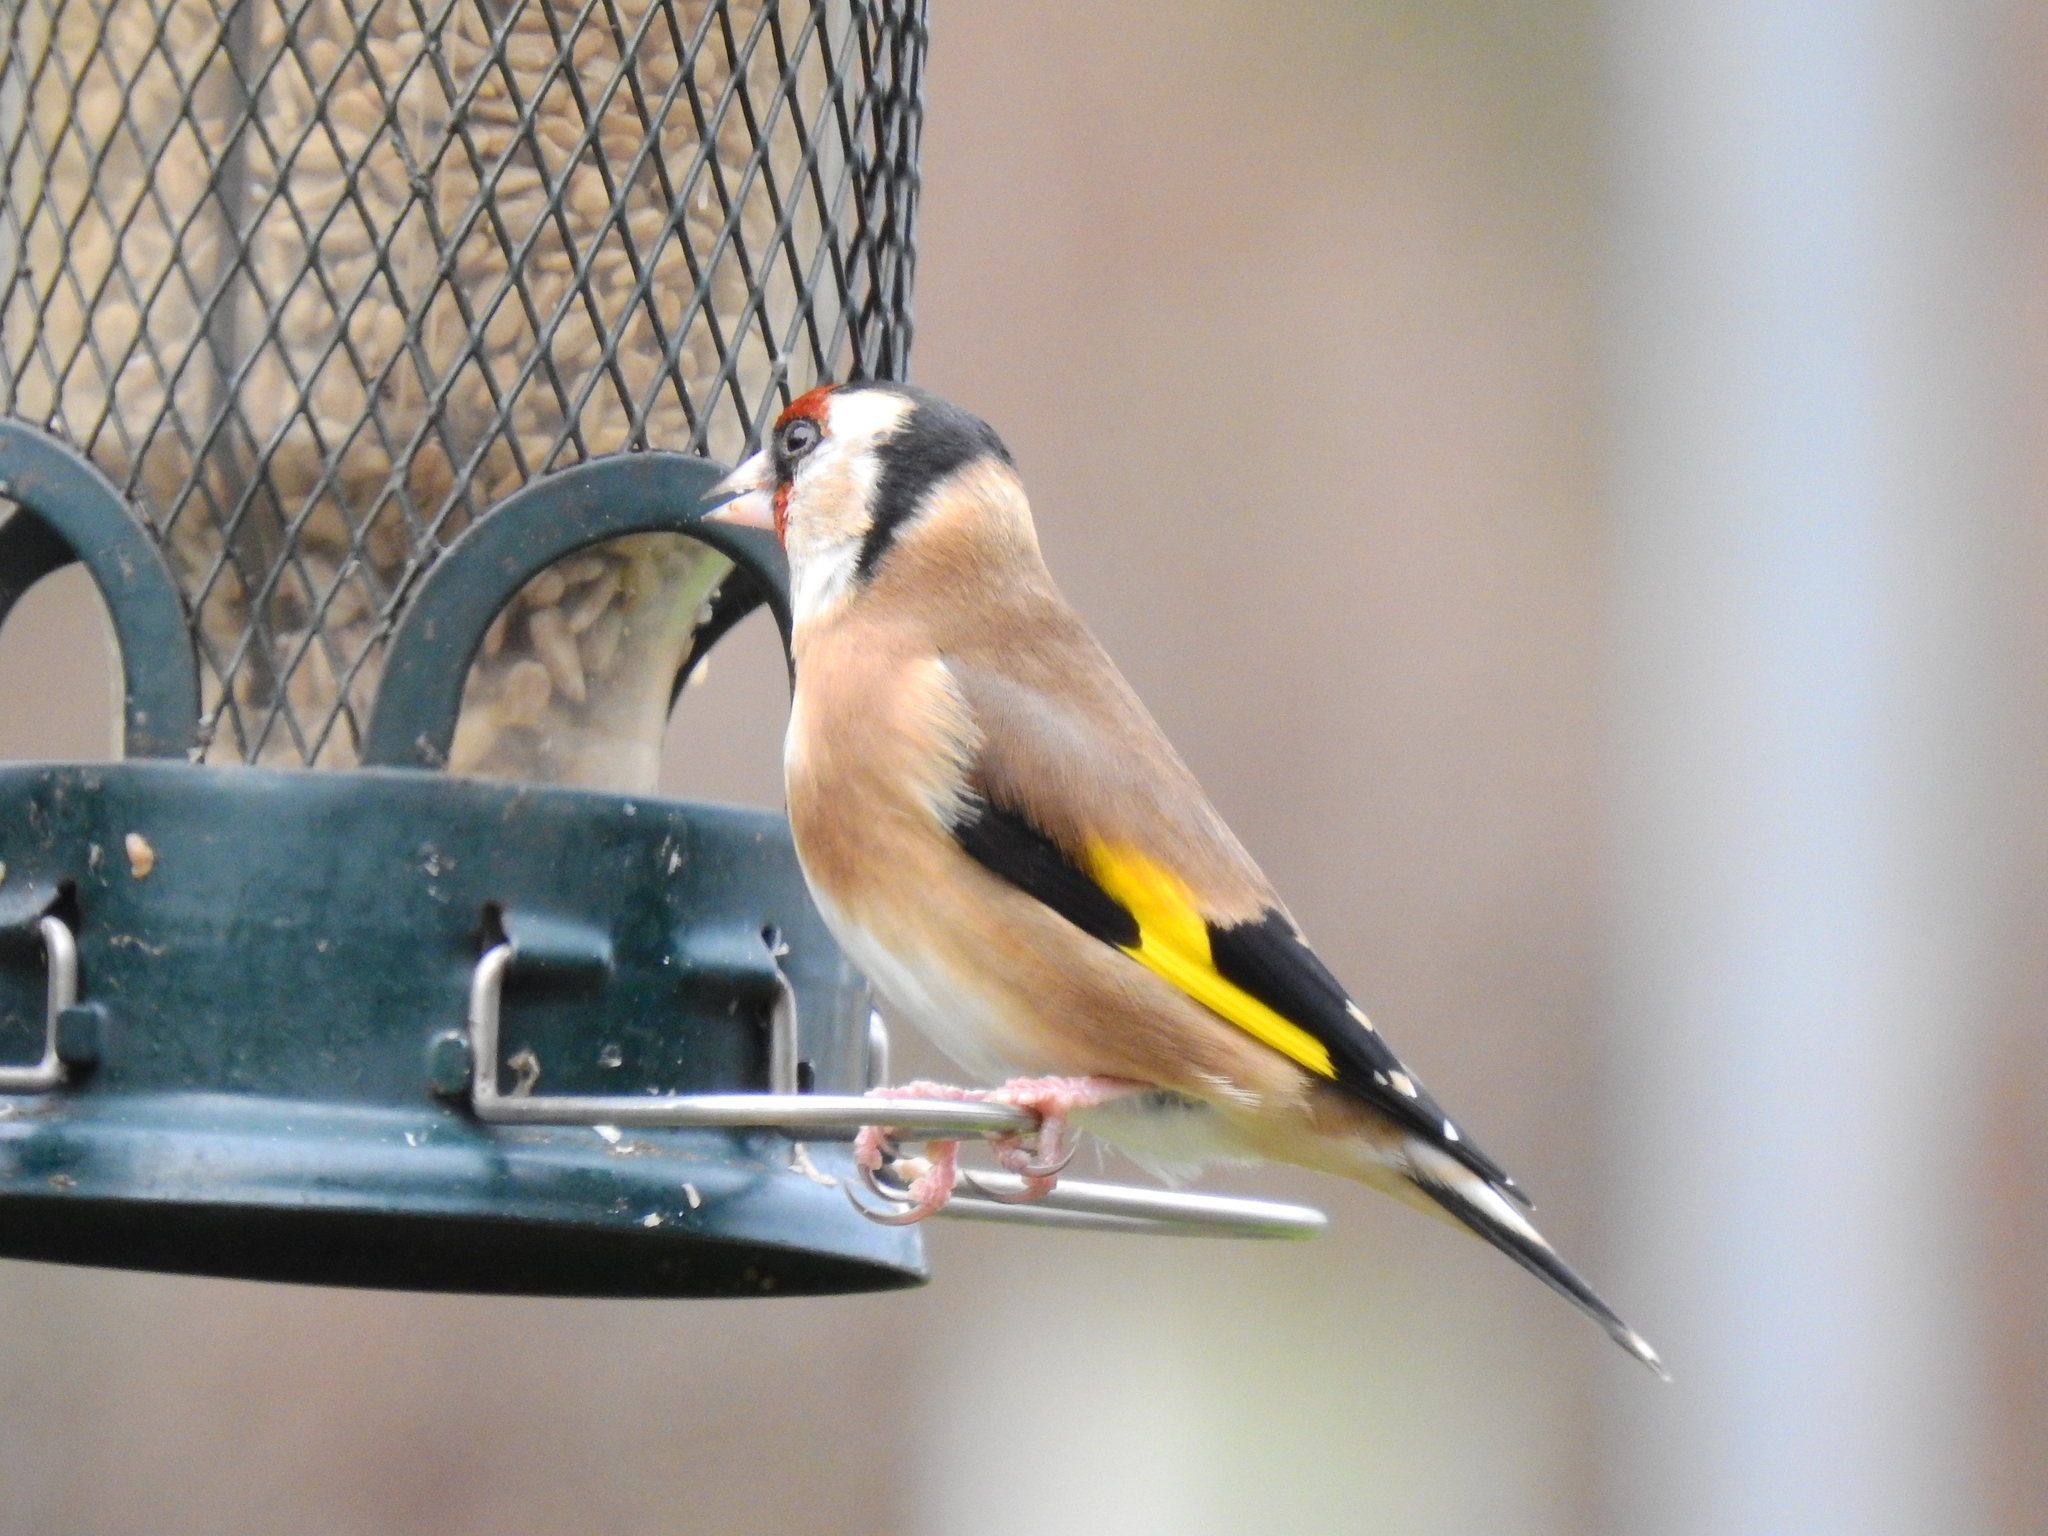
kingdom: Animalia
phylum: Chordata
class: Aves
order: Passeriformes
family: Fringillidae
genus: Carduelis
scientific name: Carduelis carduelis
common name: European goldfinch
